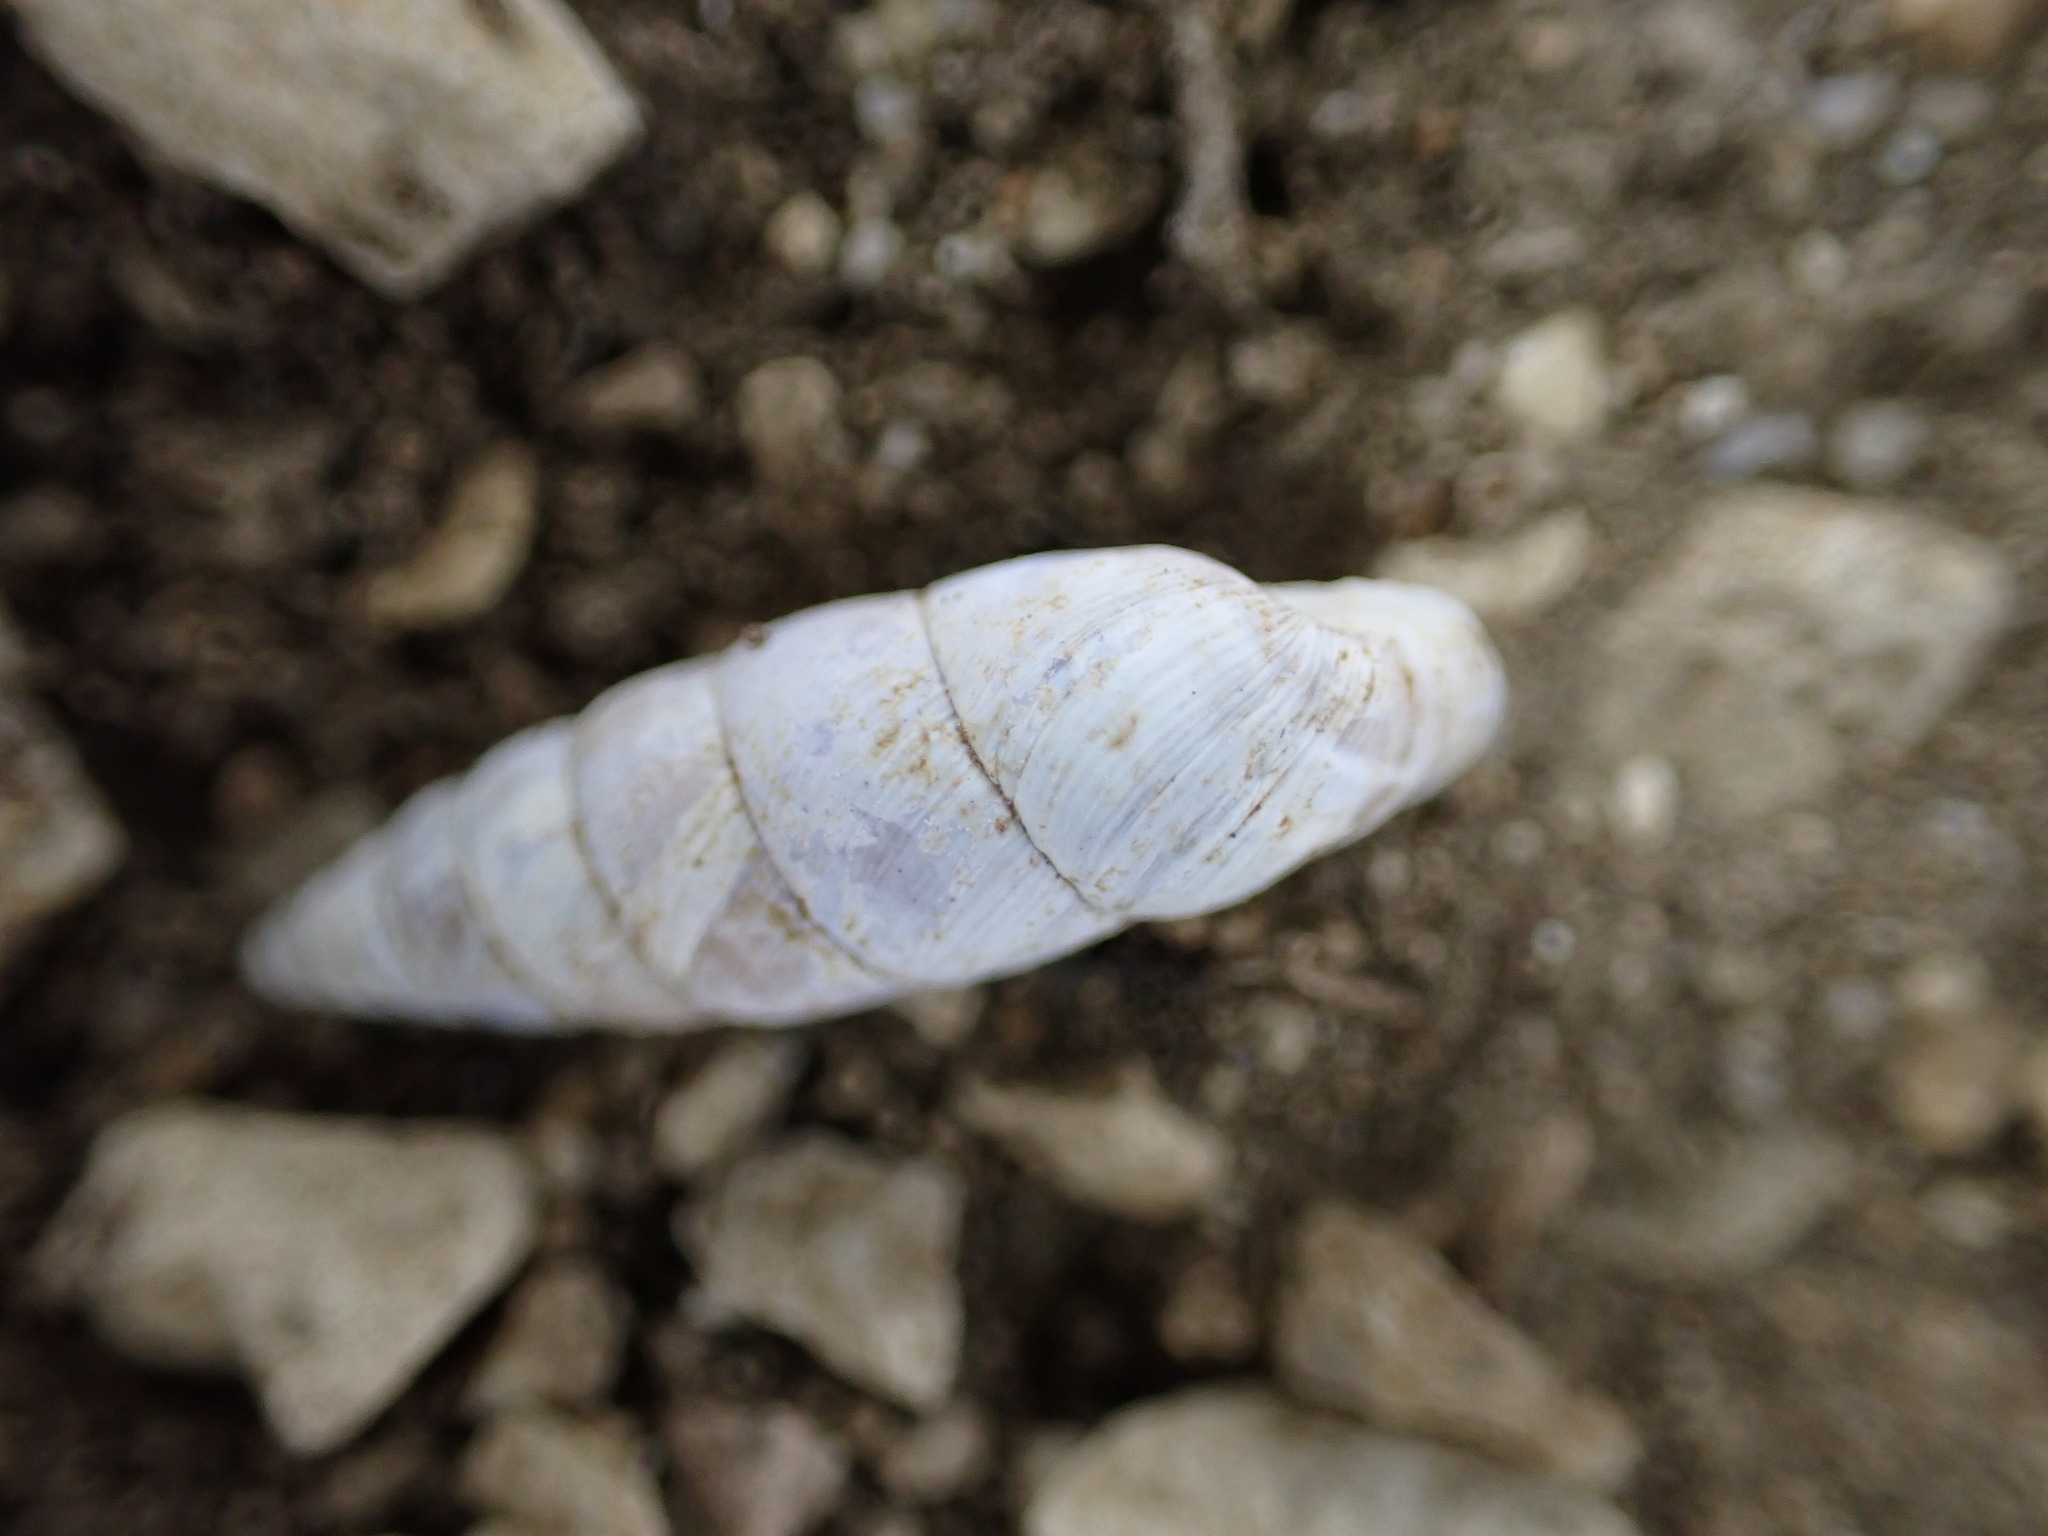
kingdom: Animalia
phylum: Mollusca
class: Gastropoda
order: Stylommatophora
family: Chondrinidae
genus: Solatopupa
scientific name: Solatopupa similis
